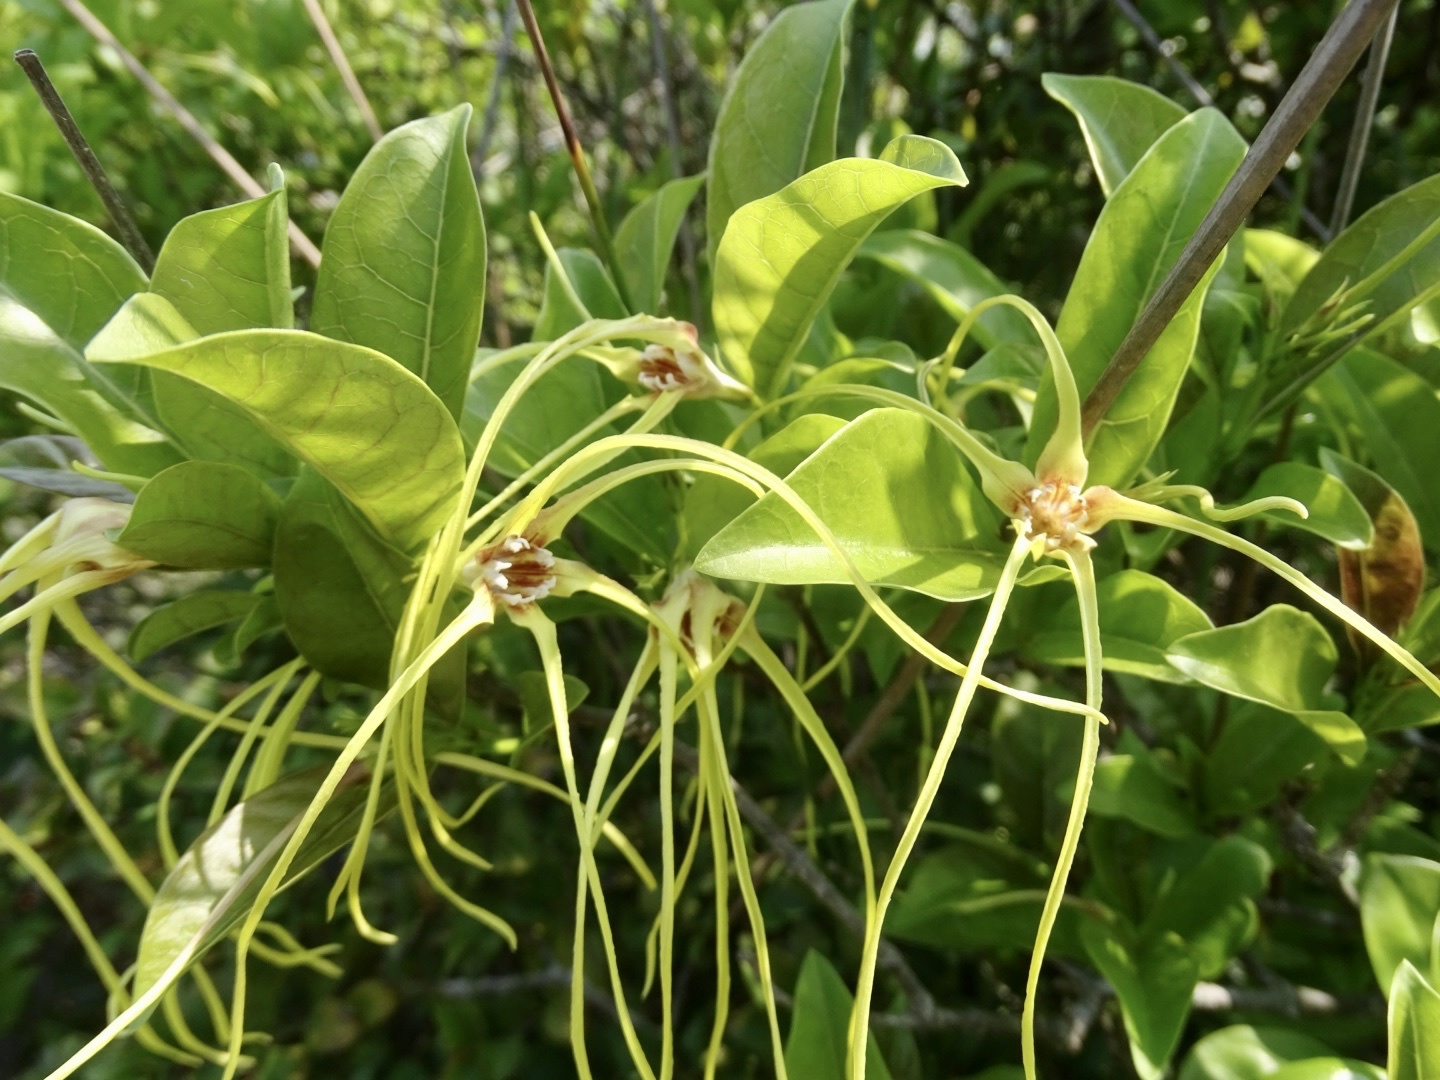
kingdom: Plantae
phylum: Tracheophyta
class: Magnoliopsida
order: Gentianales
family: Apocynaceae
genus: Strophanthus
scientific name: Strophanthus divaricatus
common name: Goat-horns
